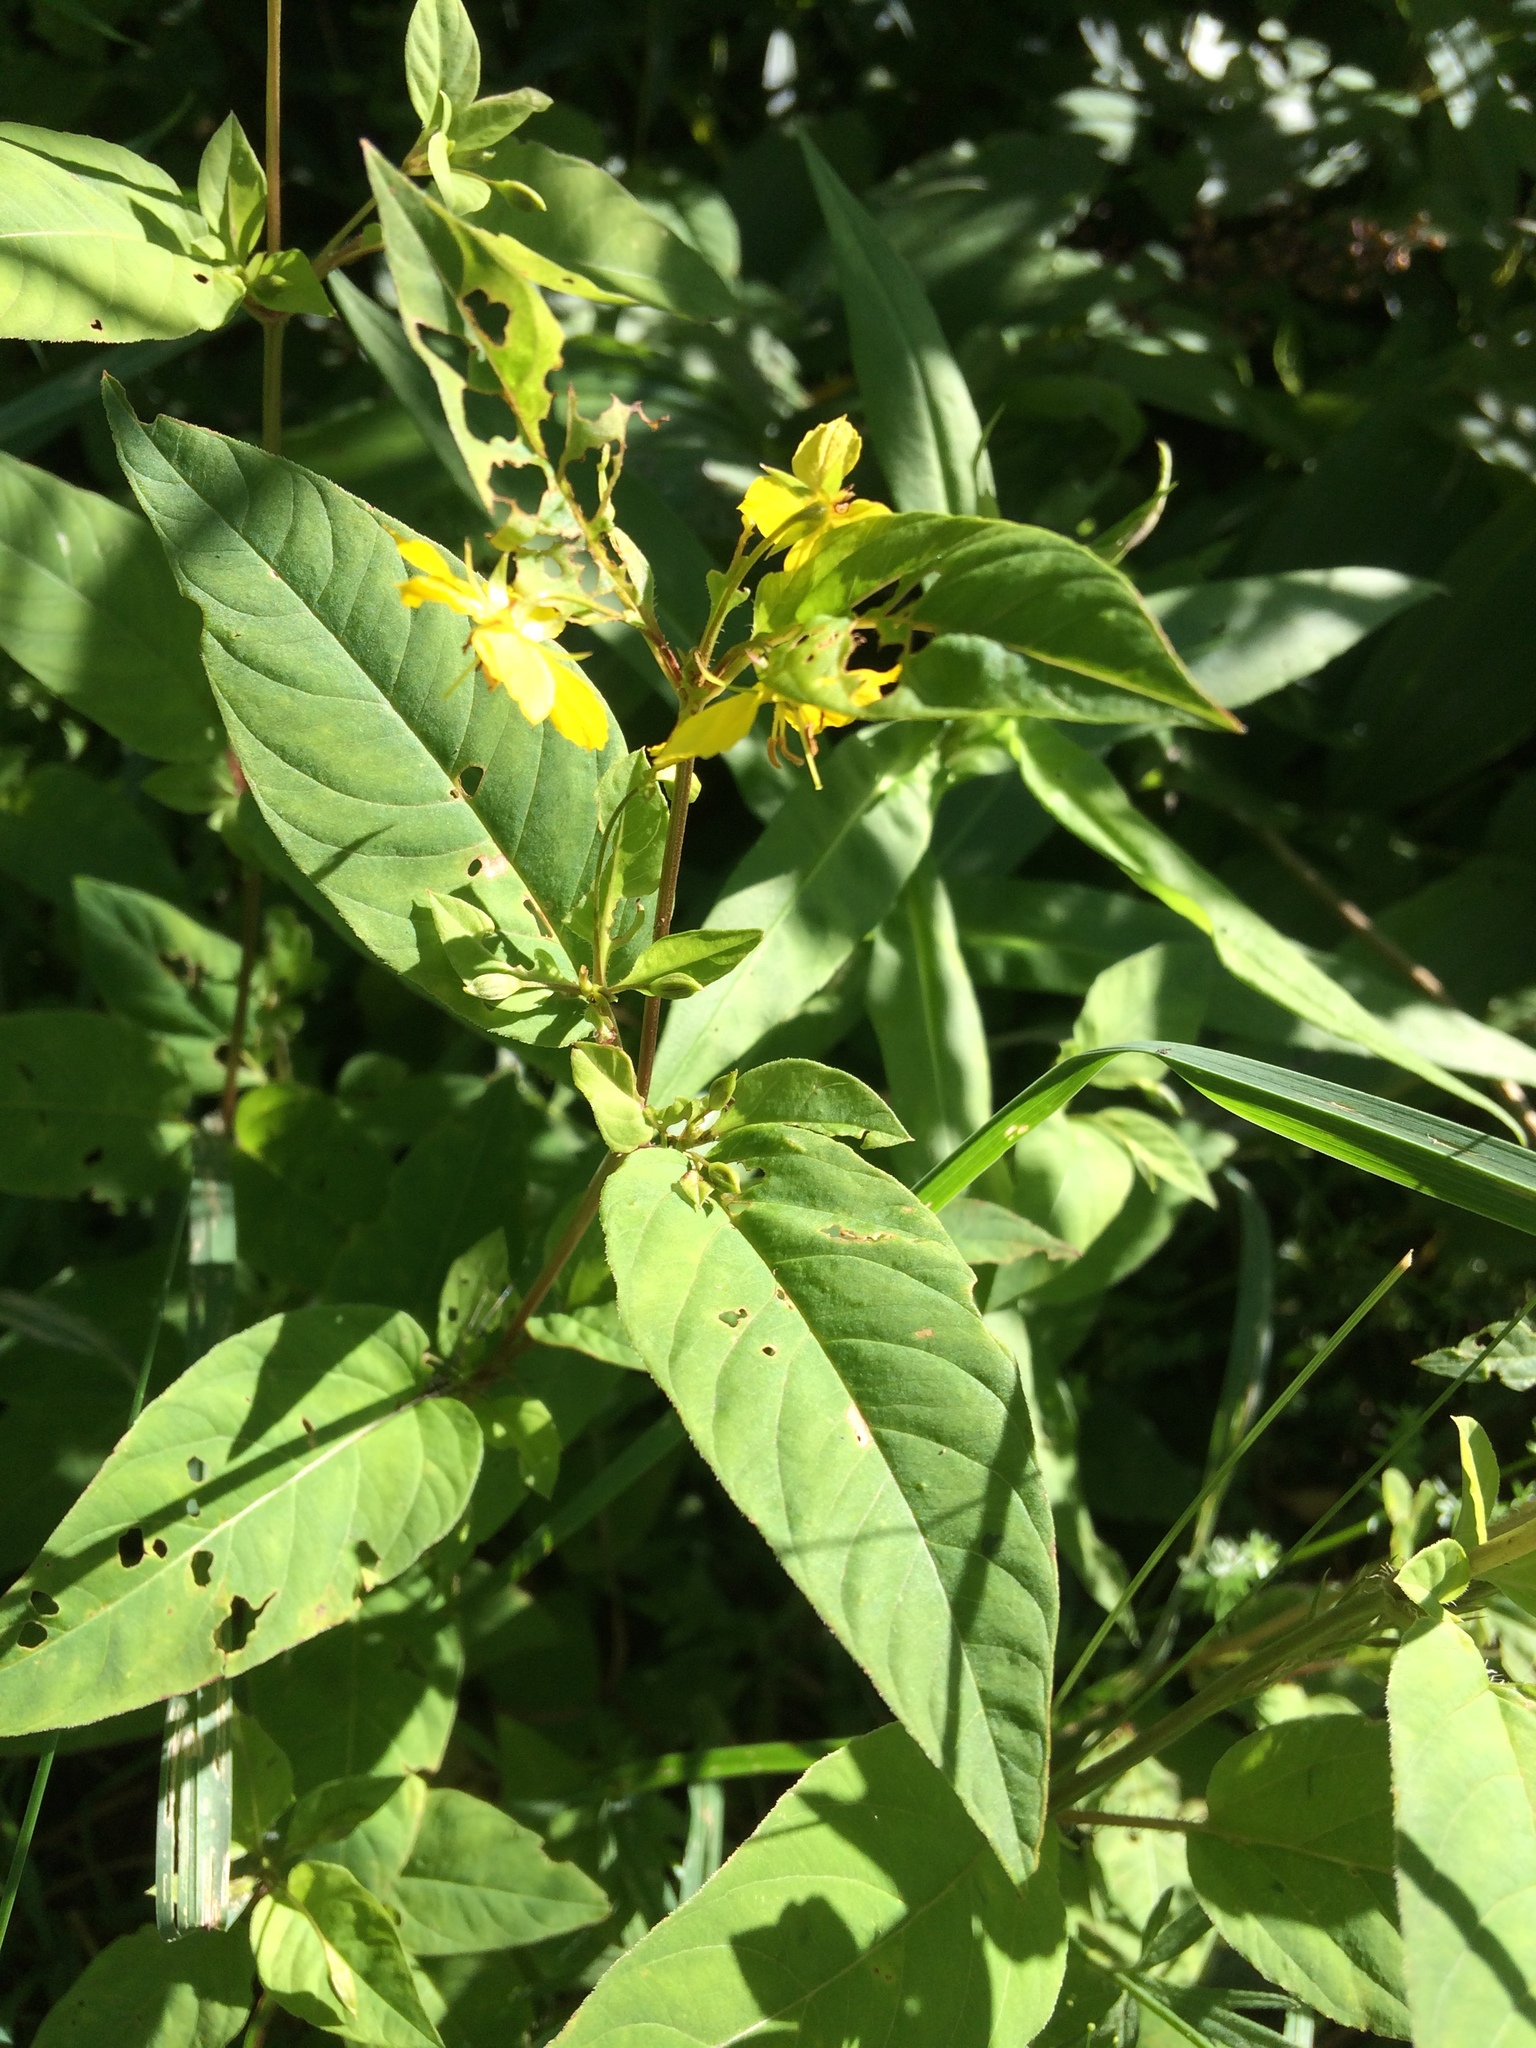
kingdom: Plantae
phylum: Tracheophyta
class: Magnoliopsida
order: Ericales
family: Primulaceae
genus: Lysimachia
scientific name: Lysimachia ciliata
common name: Fringed loosestrife
